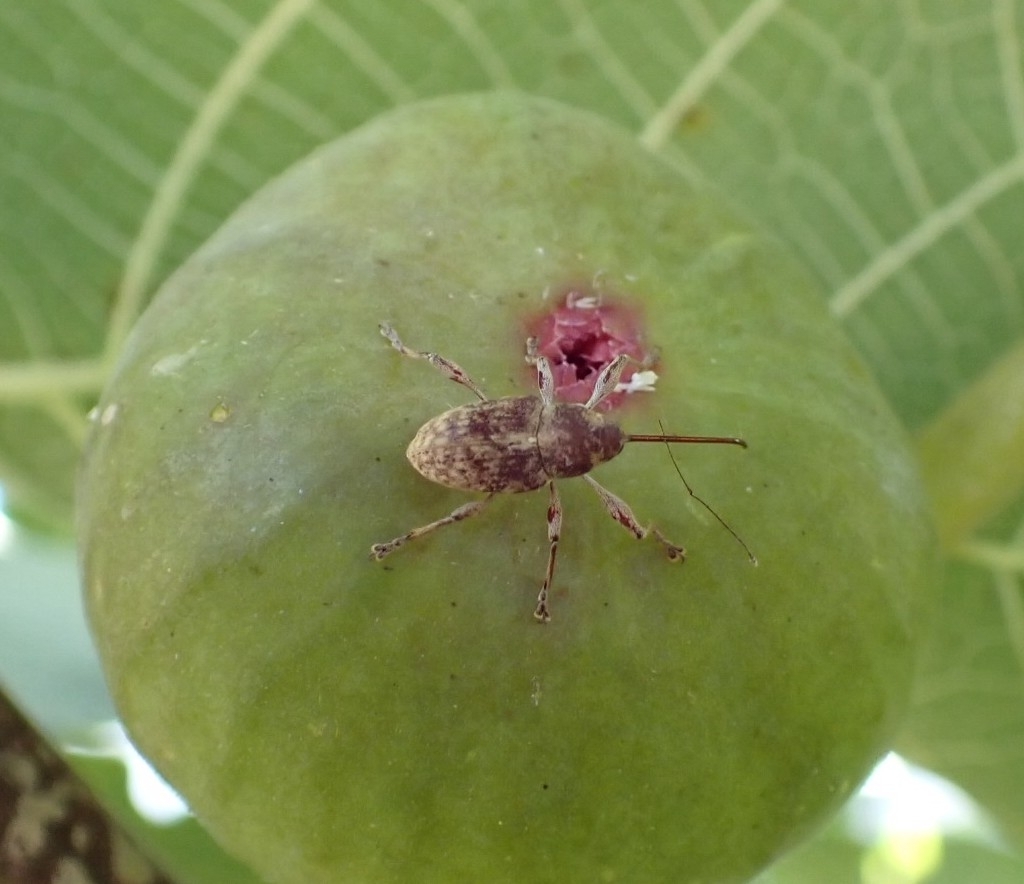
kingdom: Animalia
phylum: Arthropoda
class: Insecta
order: Coleoptera
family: Curculionidae
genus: Curculio
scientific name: Curculio elephas
